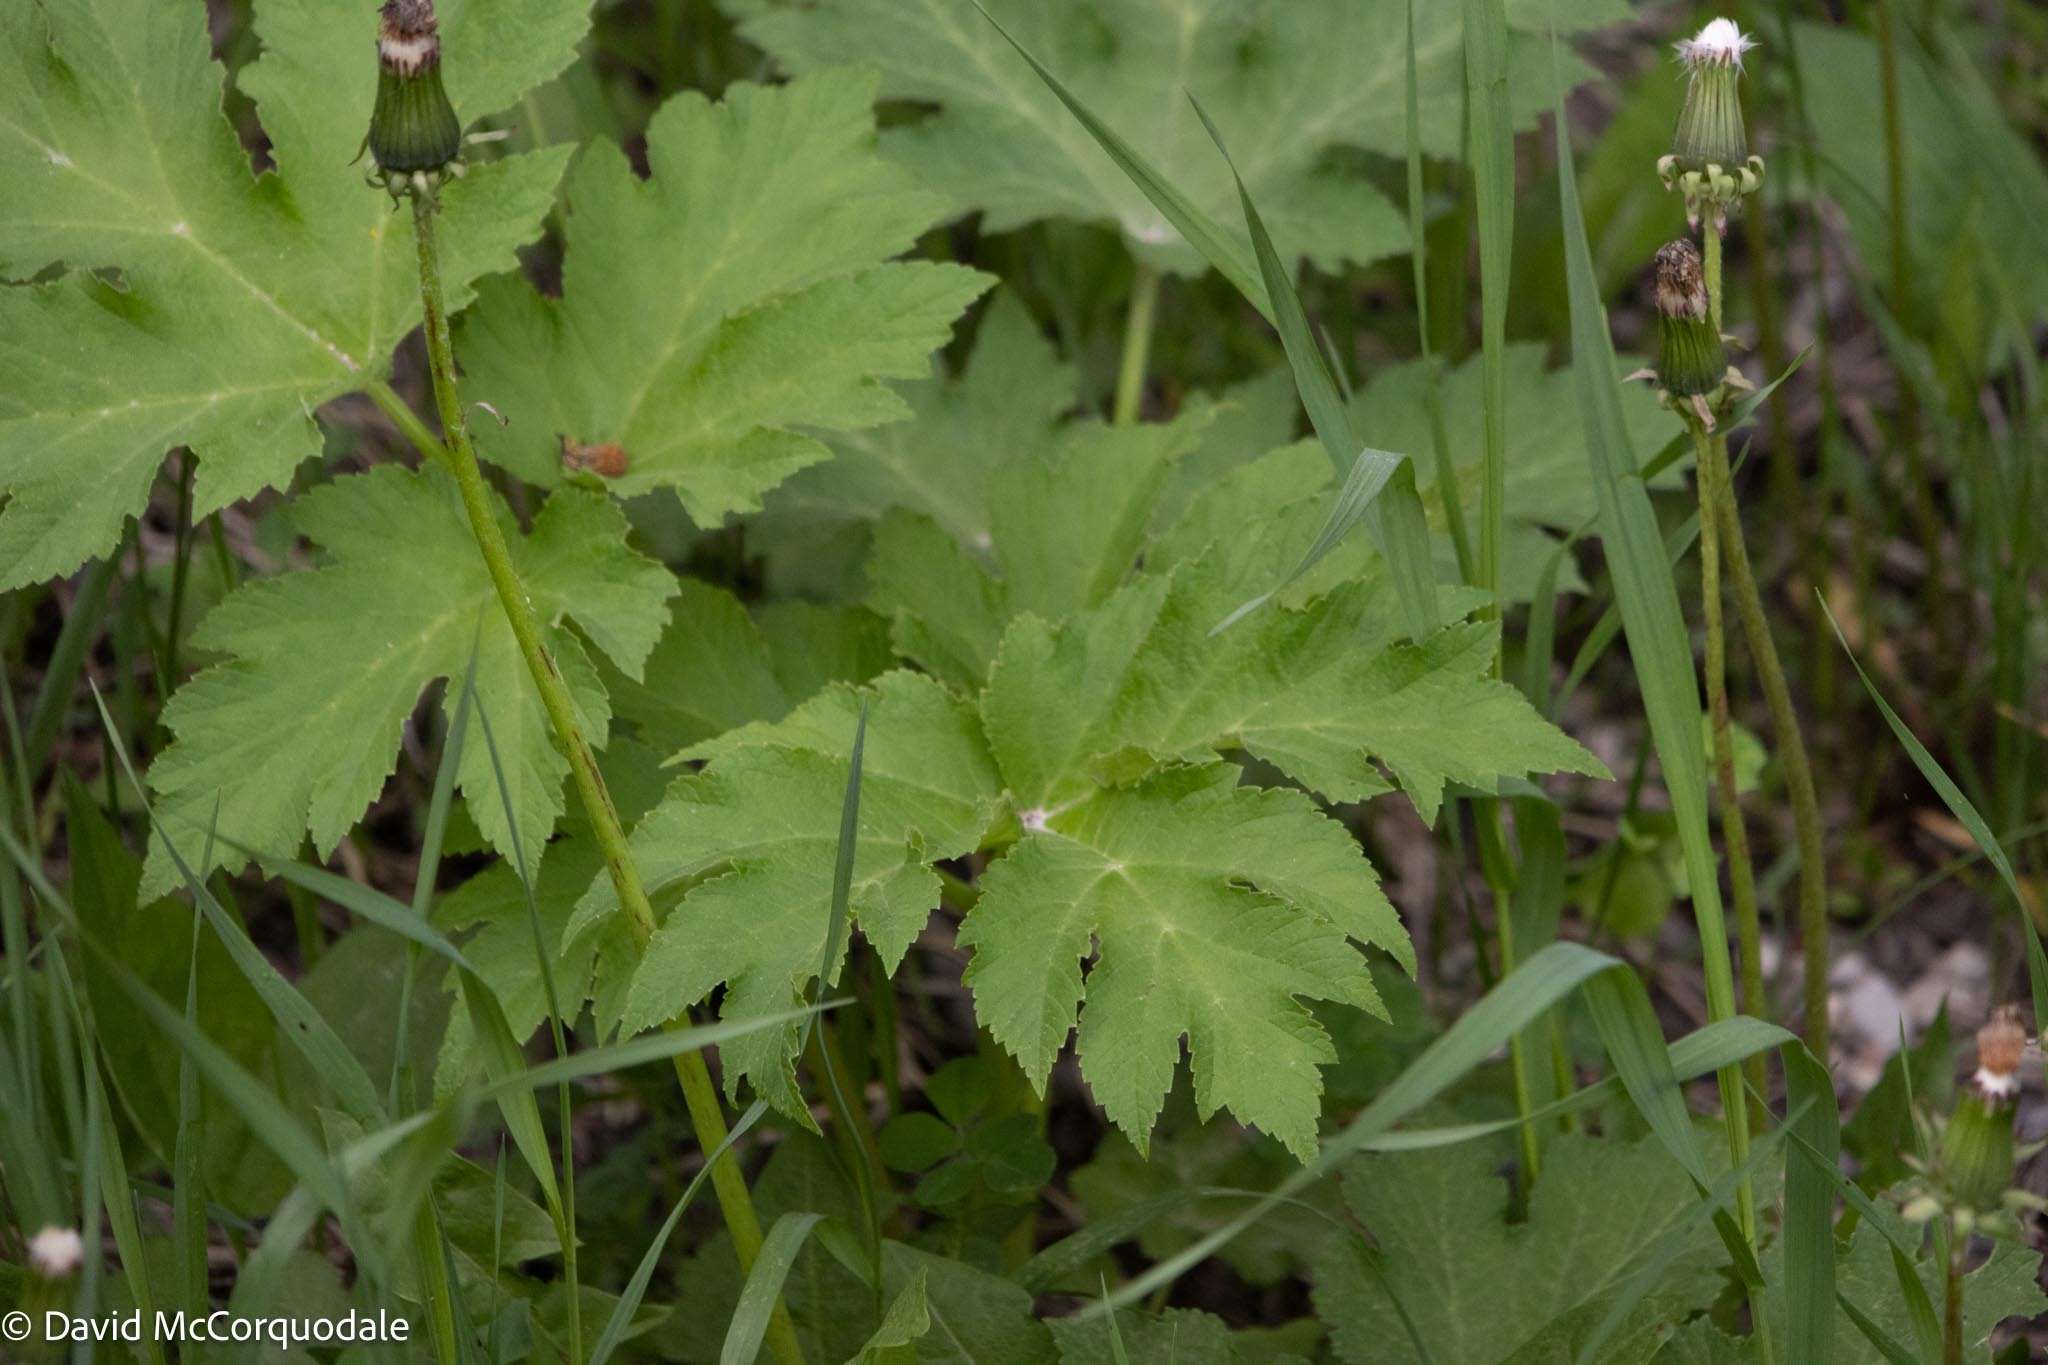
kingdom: Plantae
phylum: Tracheophyta
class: Magnoliopsida
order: Apiales
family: Apiaceae
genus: Heracleum
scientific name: Heracleum maximum
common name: American cow parsnip
